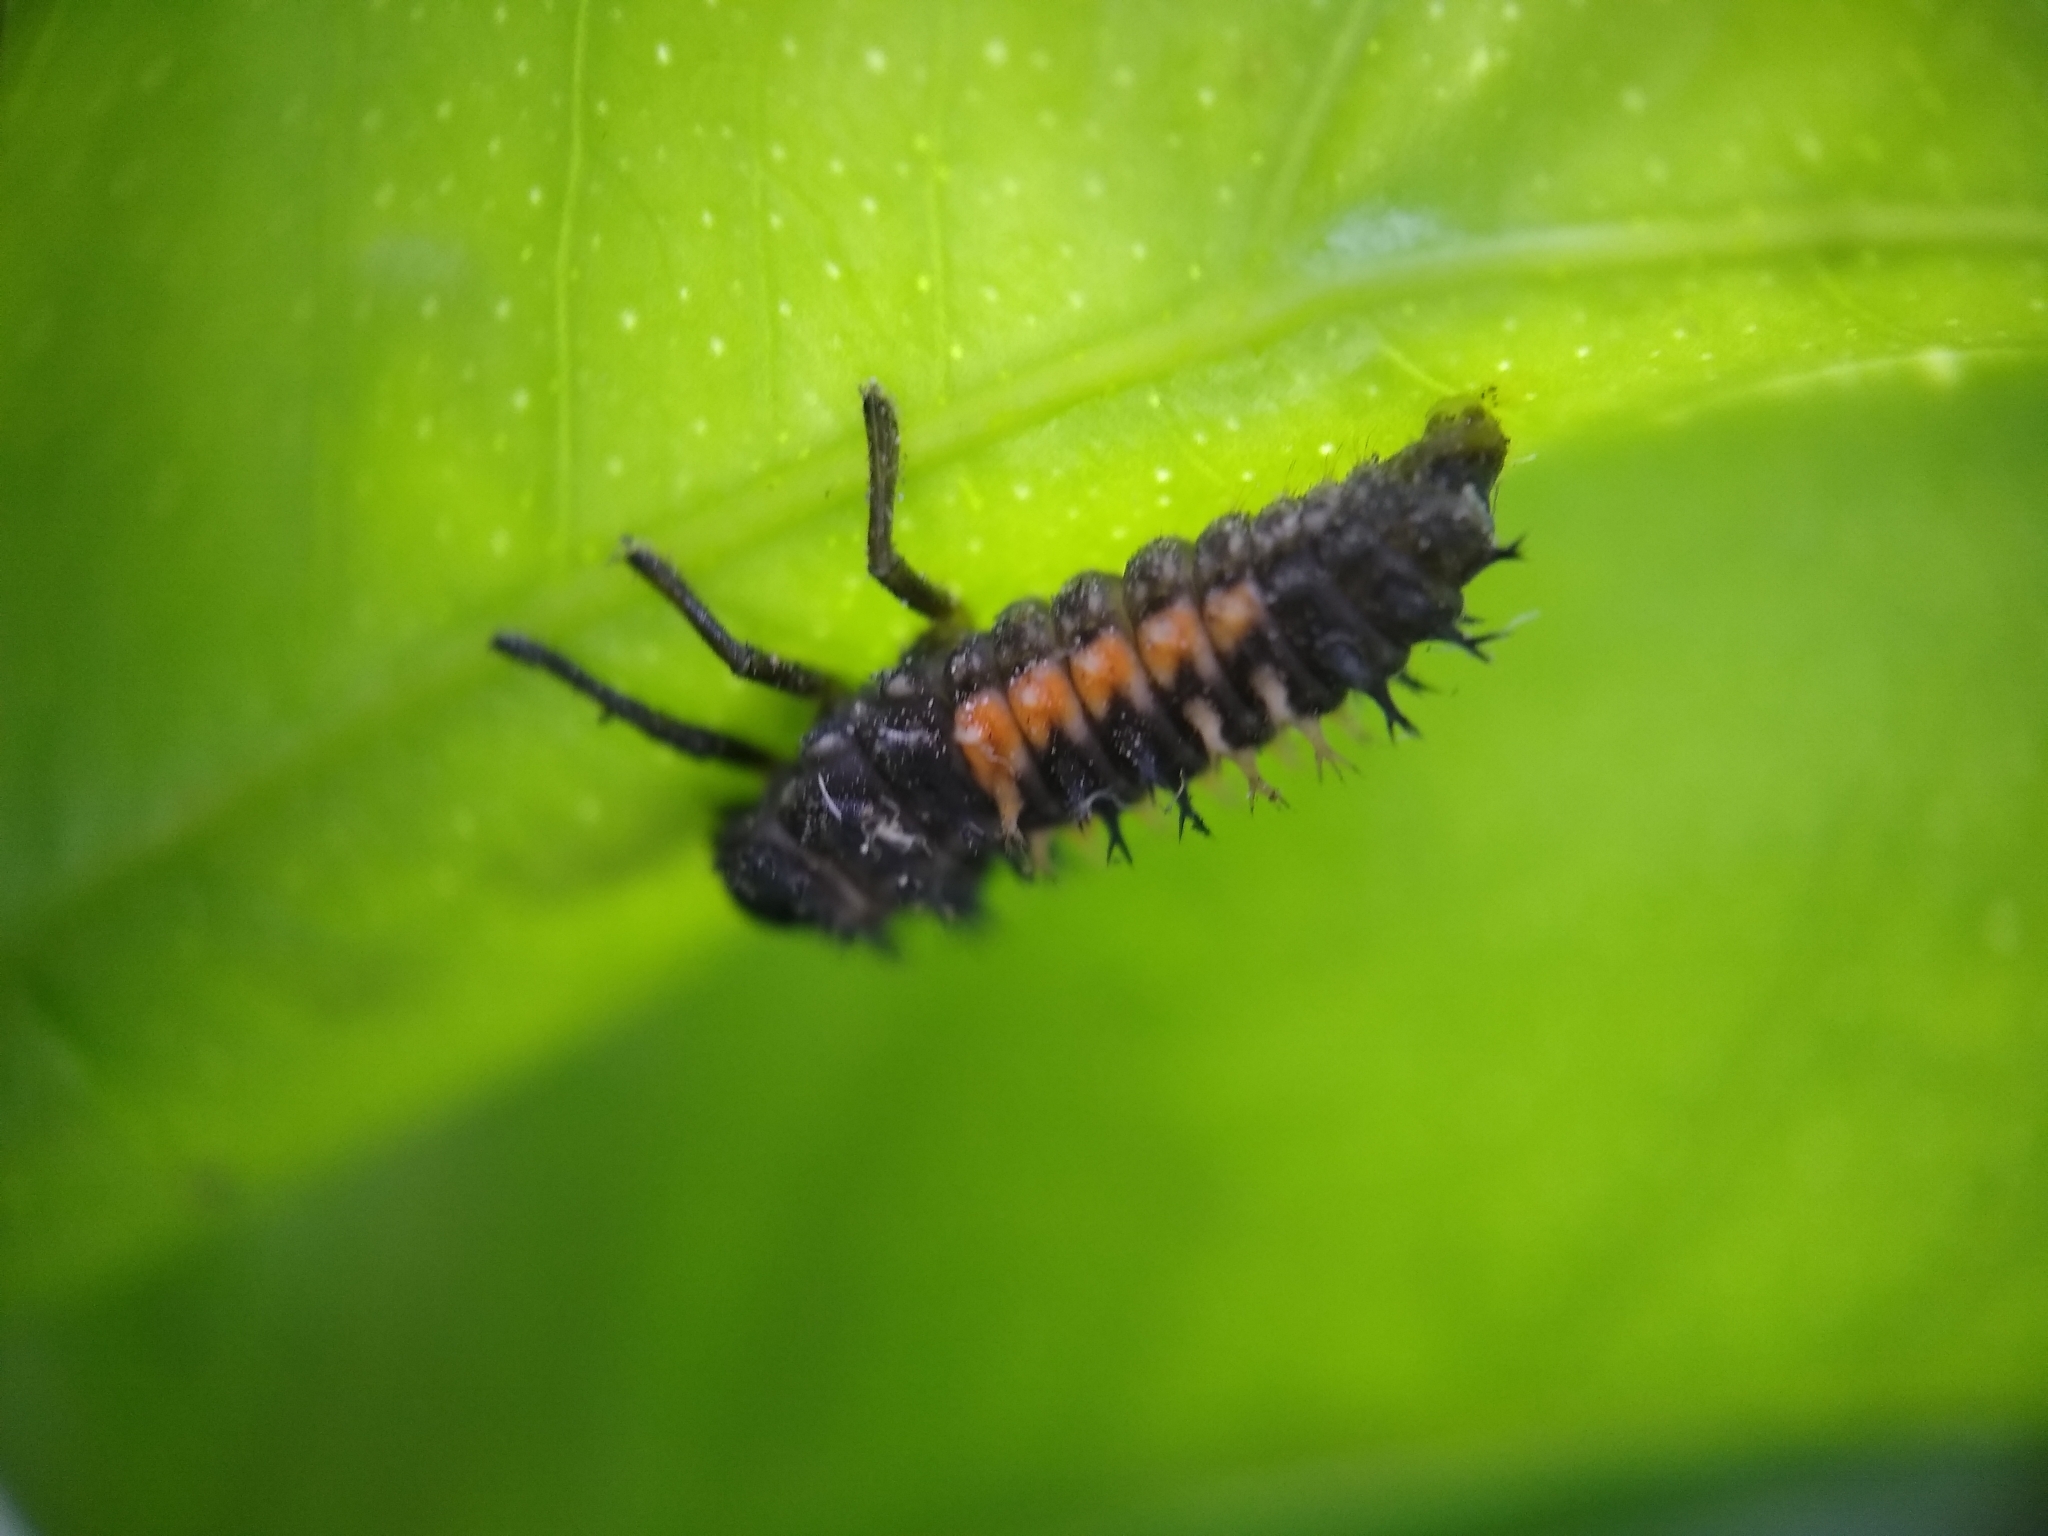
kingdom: Animalia
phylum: Arthropoda
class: Insecta
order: Coleoptera
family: Coccinellidae
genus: Harmonia
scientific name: Harmonia axyridis
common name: Harlequin ladybird
